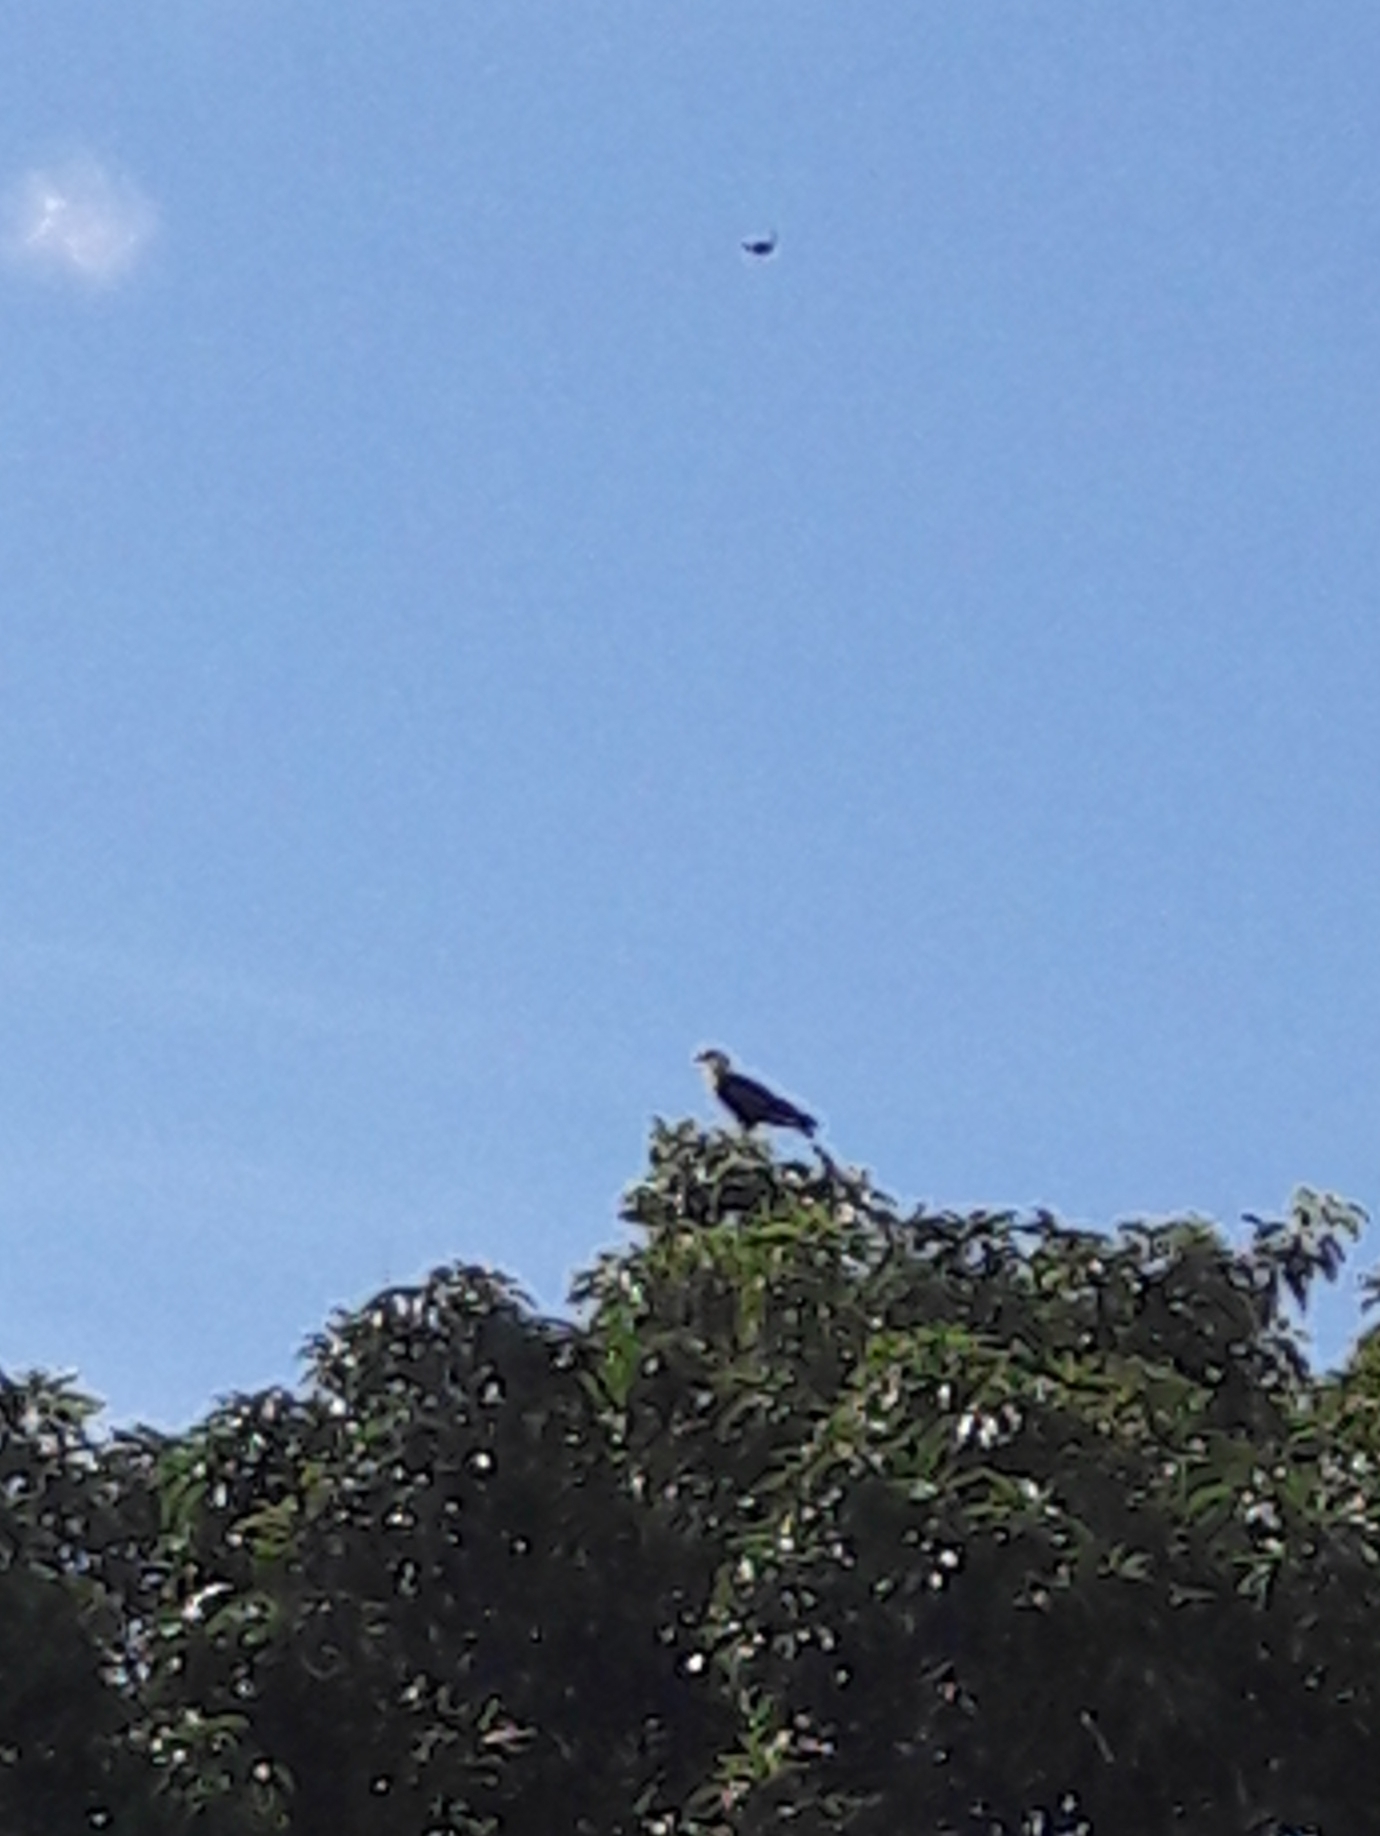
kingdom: Animalia
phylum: Chordata
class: Aves
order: Falconiformes
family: Falconidae
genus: Caracara
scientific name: Caracara plancus
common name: Southern caracara
